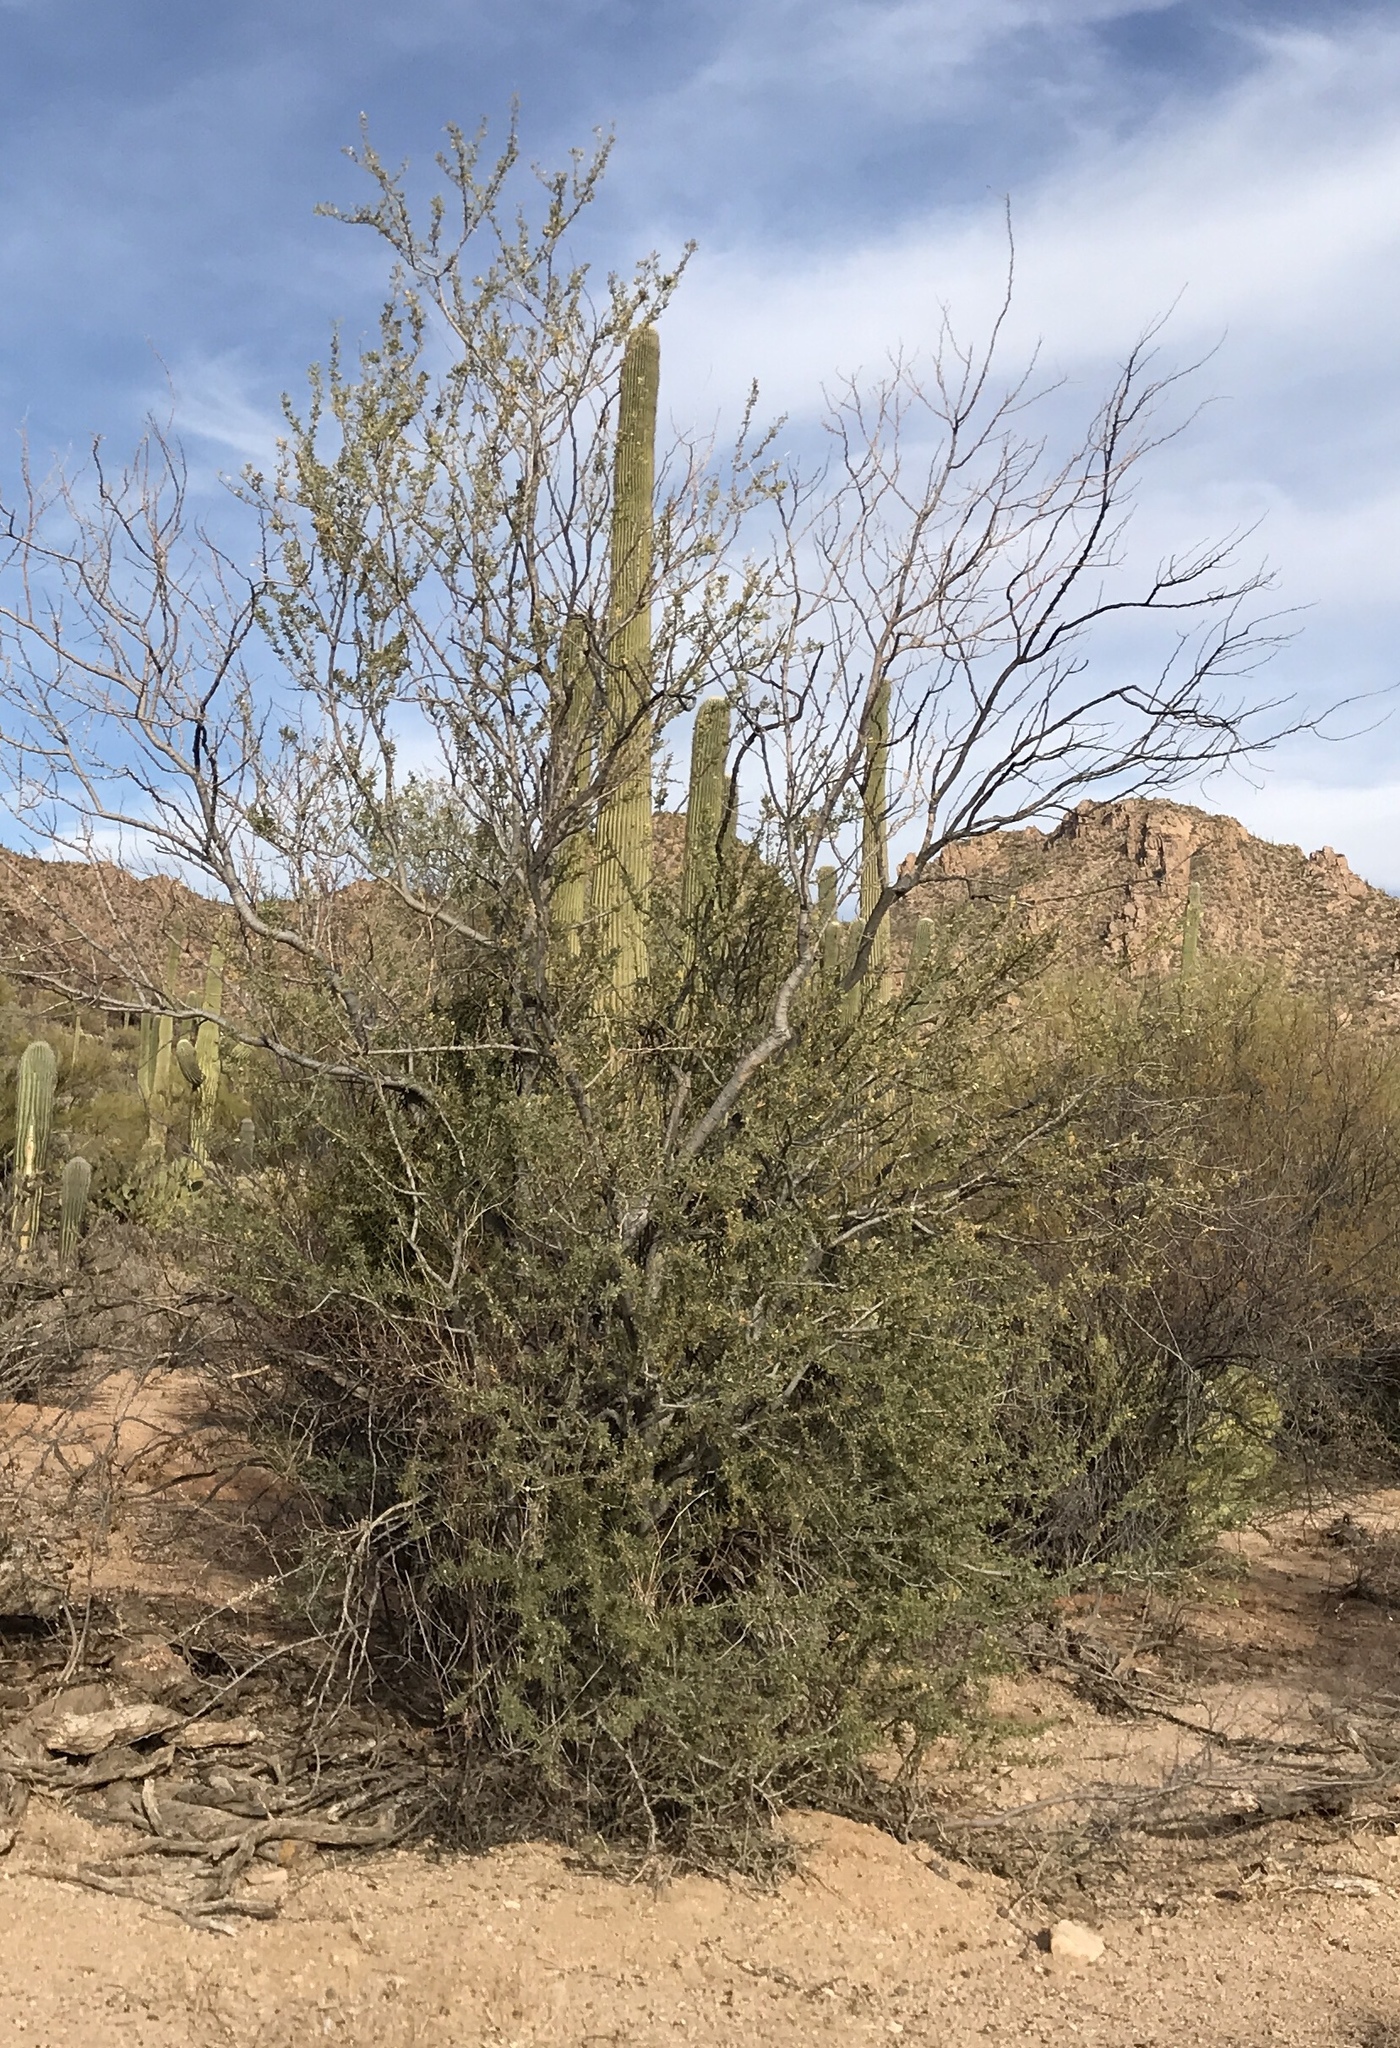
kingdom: Plantae
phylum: Tracheophyta
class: Magnoliopsida
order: Fabales
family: Fabaceae
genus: Olneya
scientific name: Olneya tesota
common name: Desert ironwood
